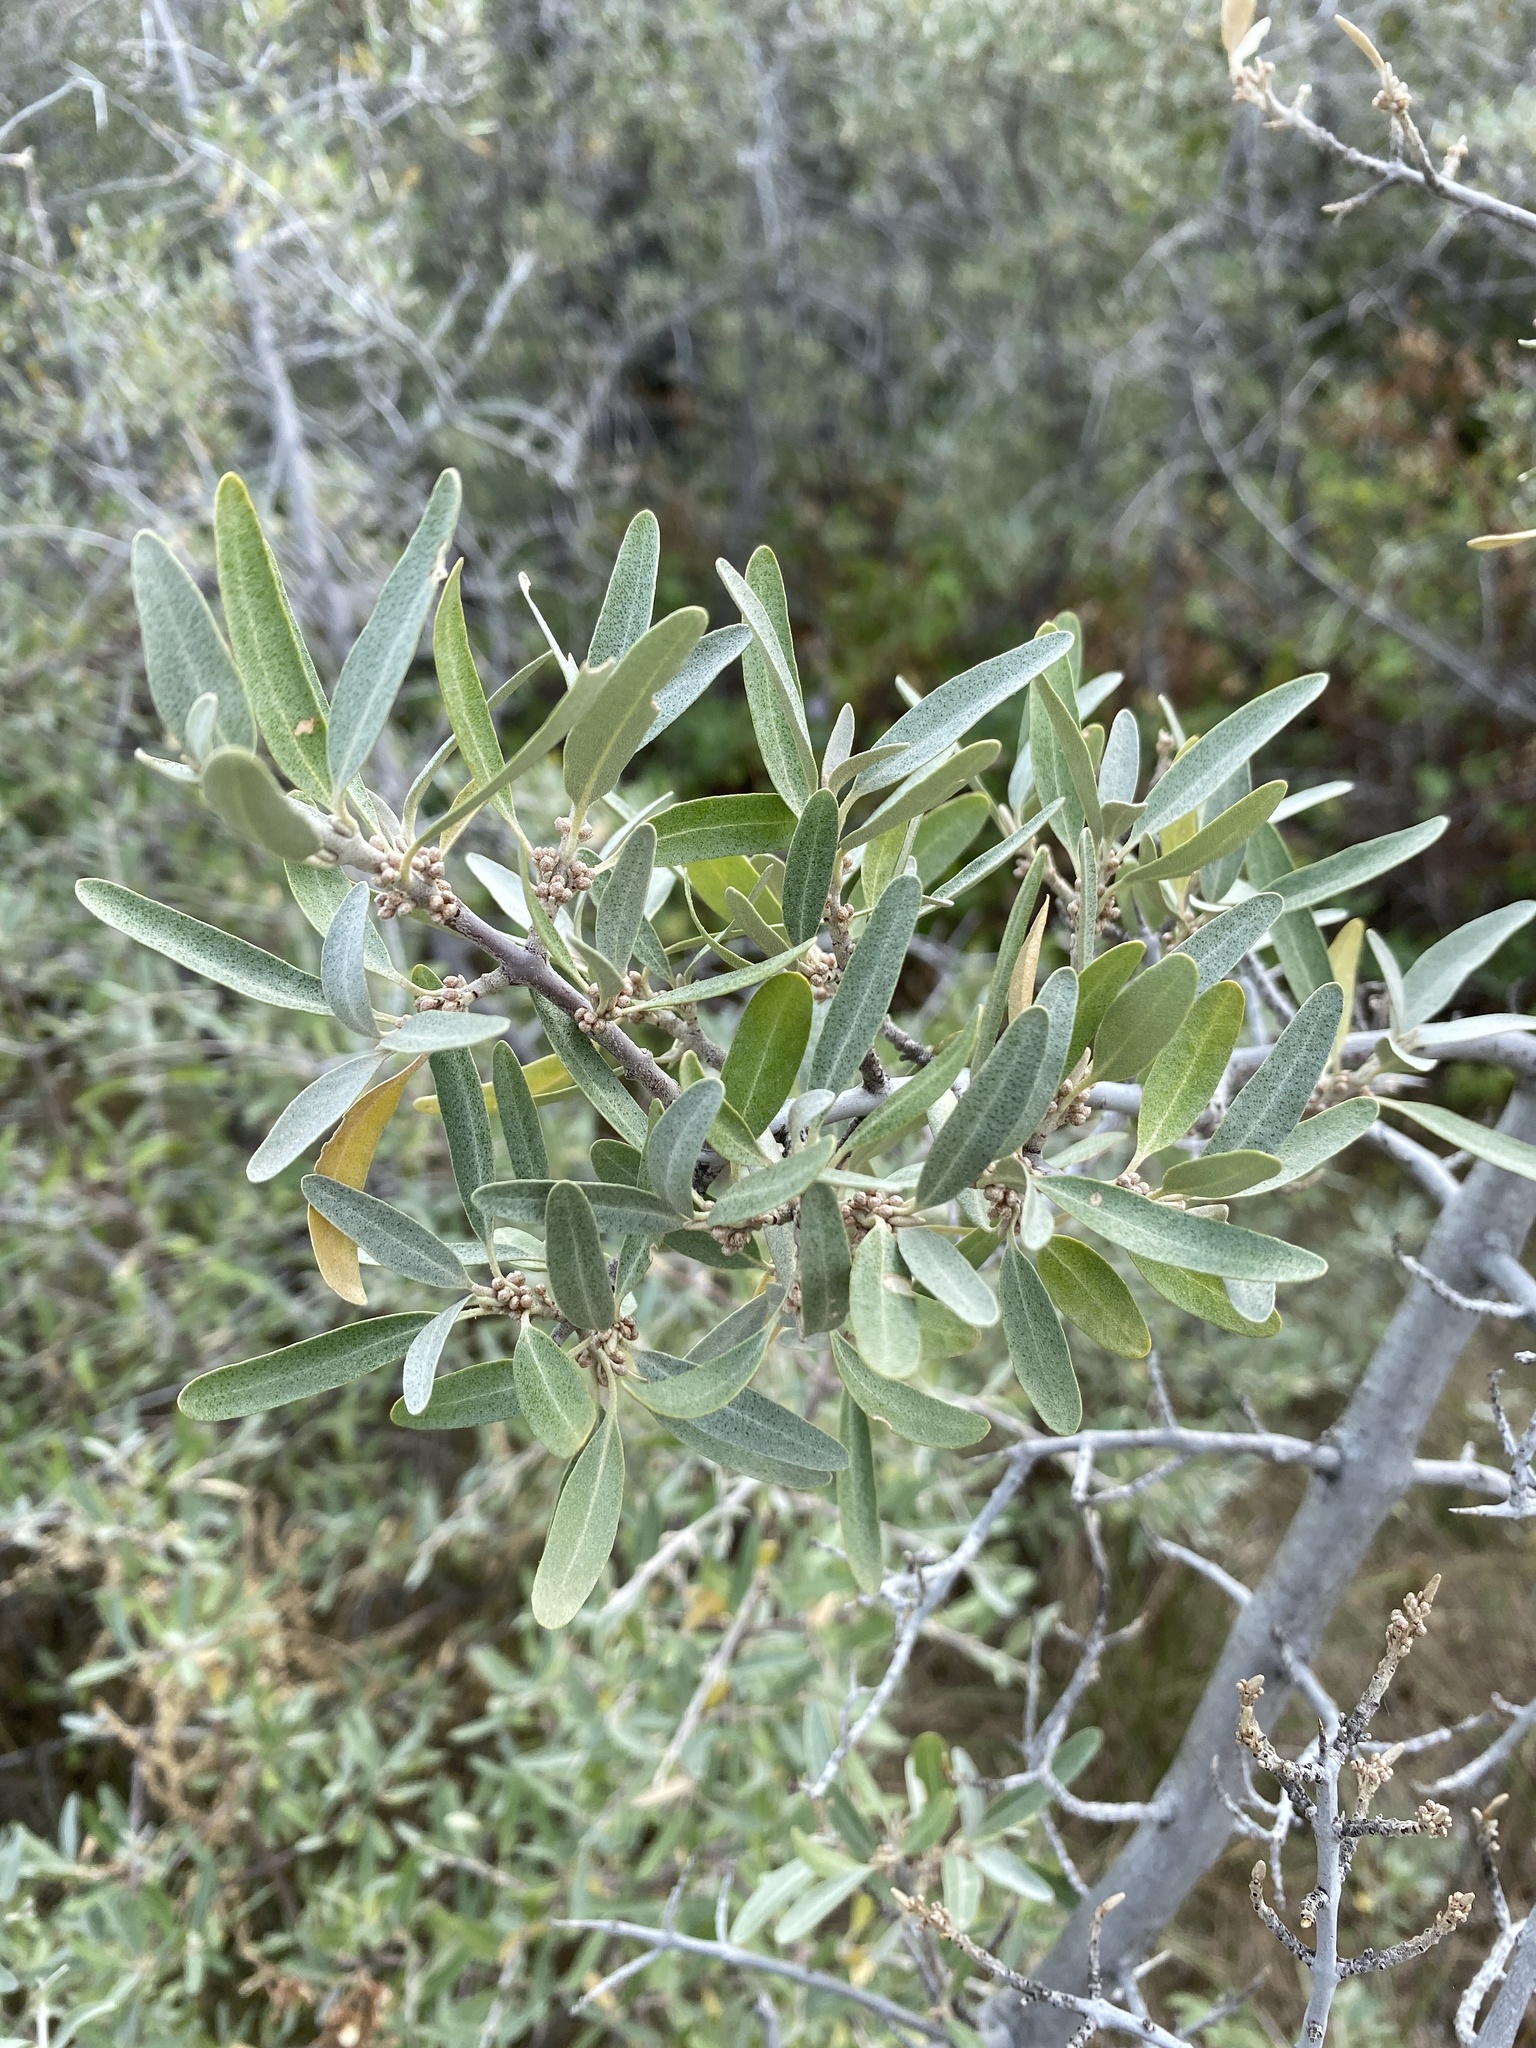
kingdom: Plantae
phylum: Tracheophyta
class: Magnoliopsida
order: Rosales
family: Elaeagnaceae
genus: Shepherdia
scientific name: Shepherdia argentea
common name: Silver buffaloberry
